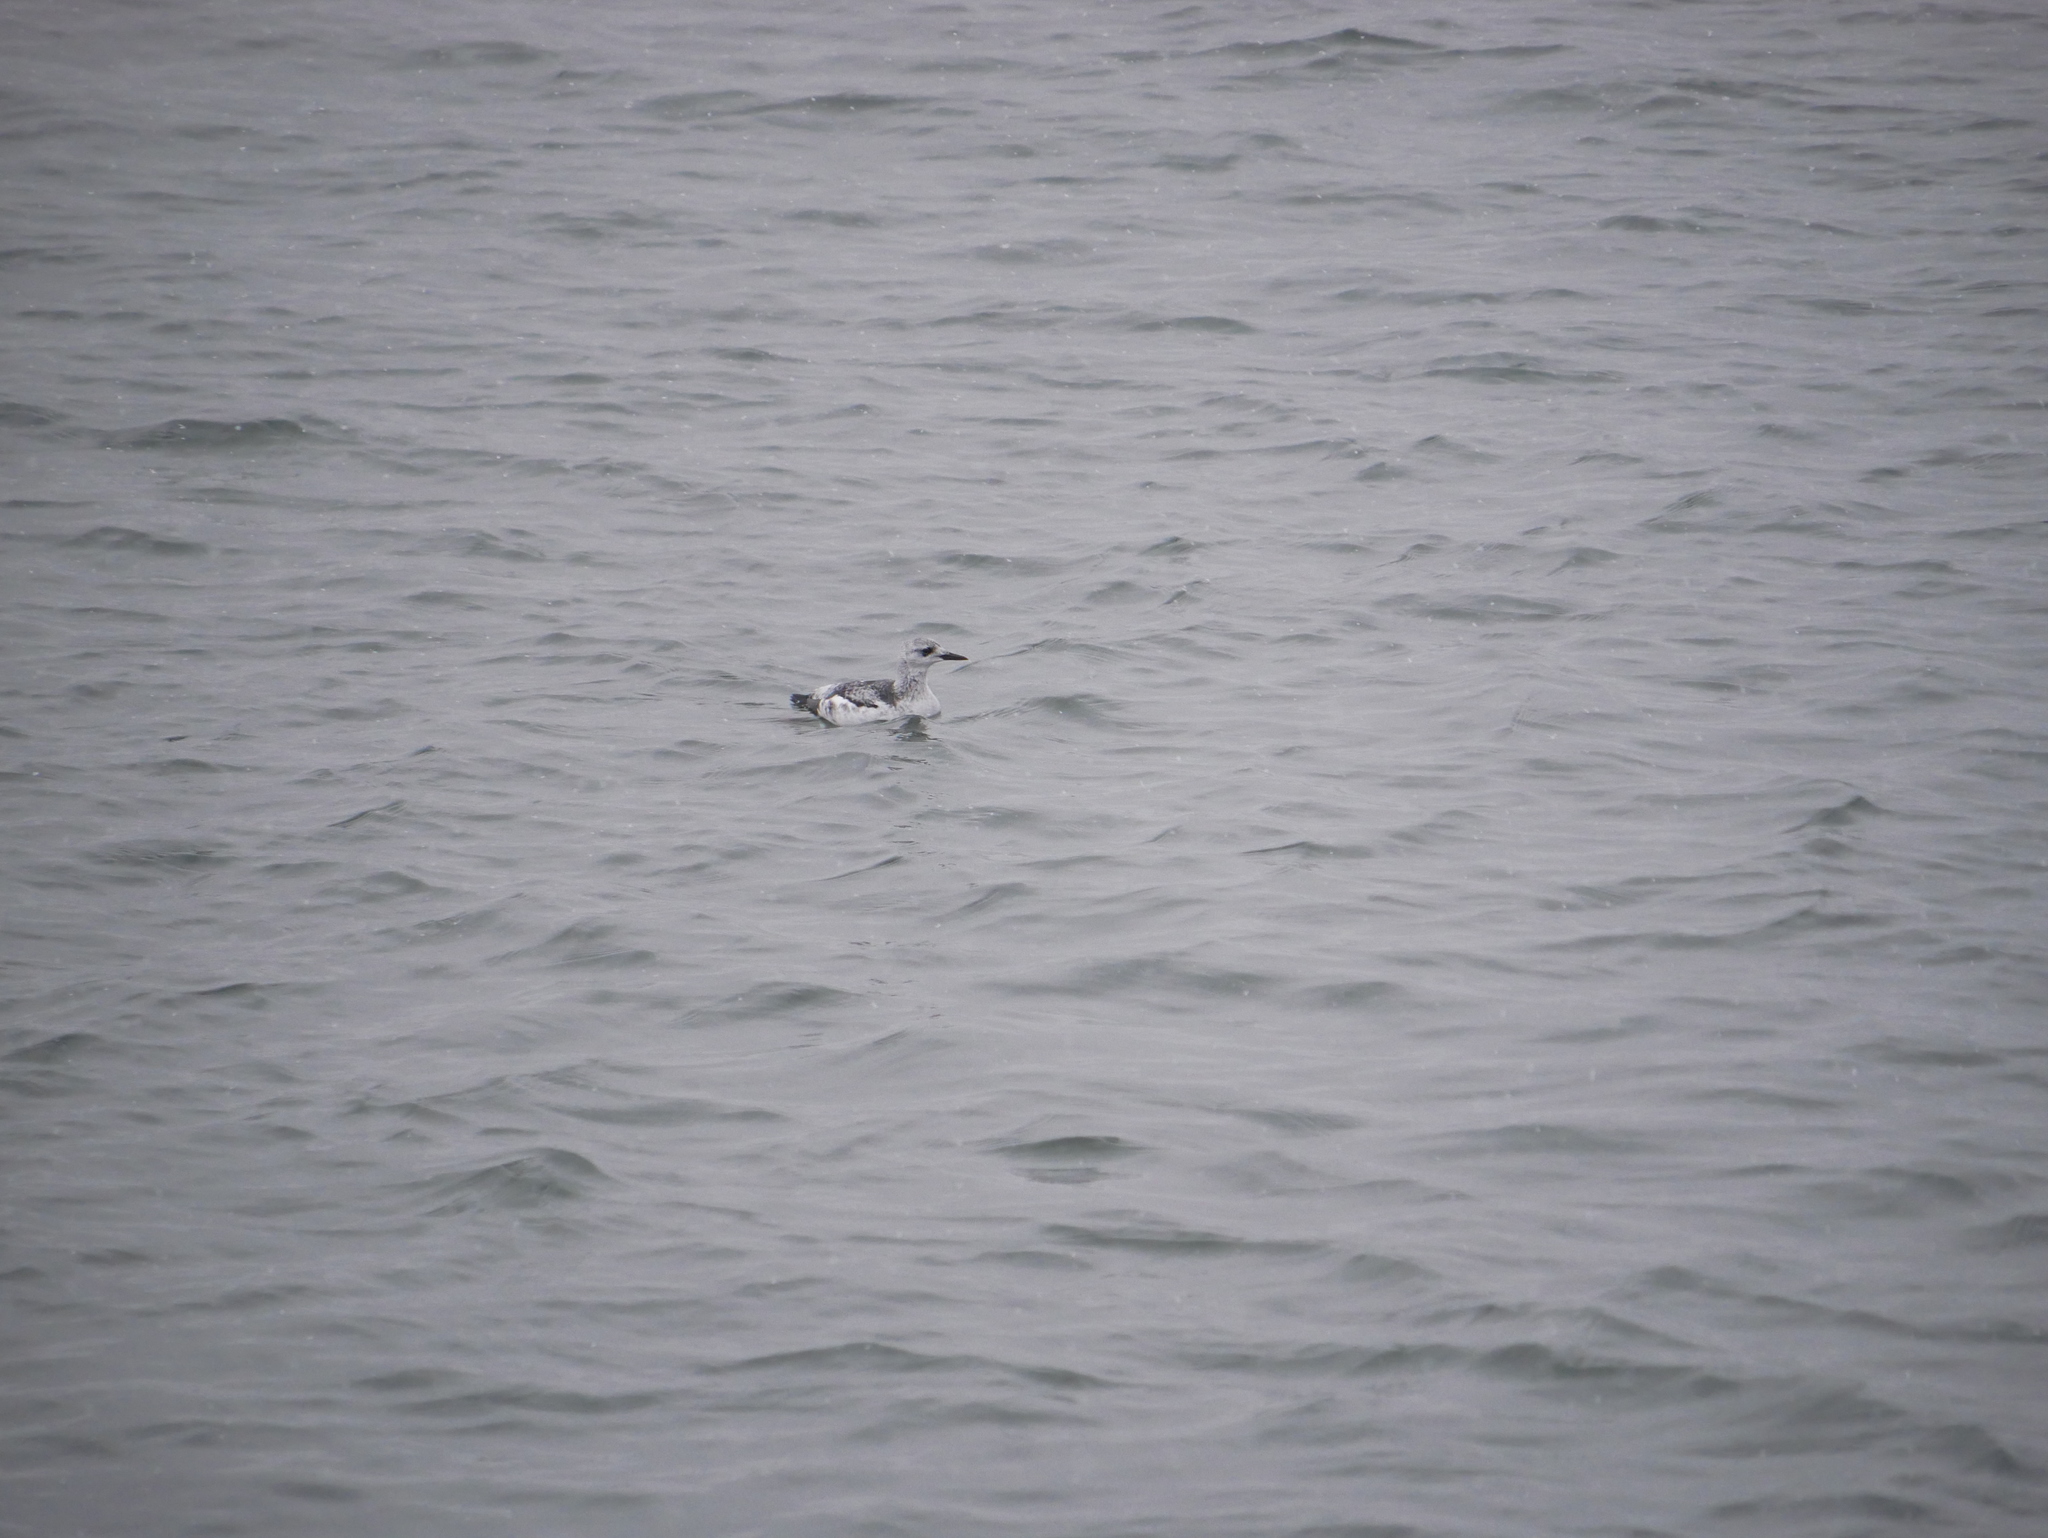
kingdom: Animalia
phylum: Chordata
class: Aves
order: Charadriiformes
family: Alcidae
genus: Cepphus
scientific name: Cepphus grylle
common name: Black guillemot
